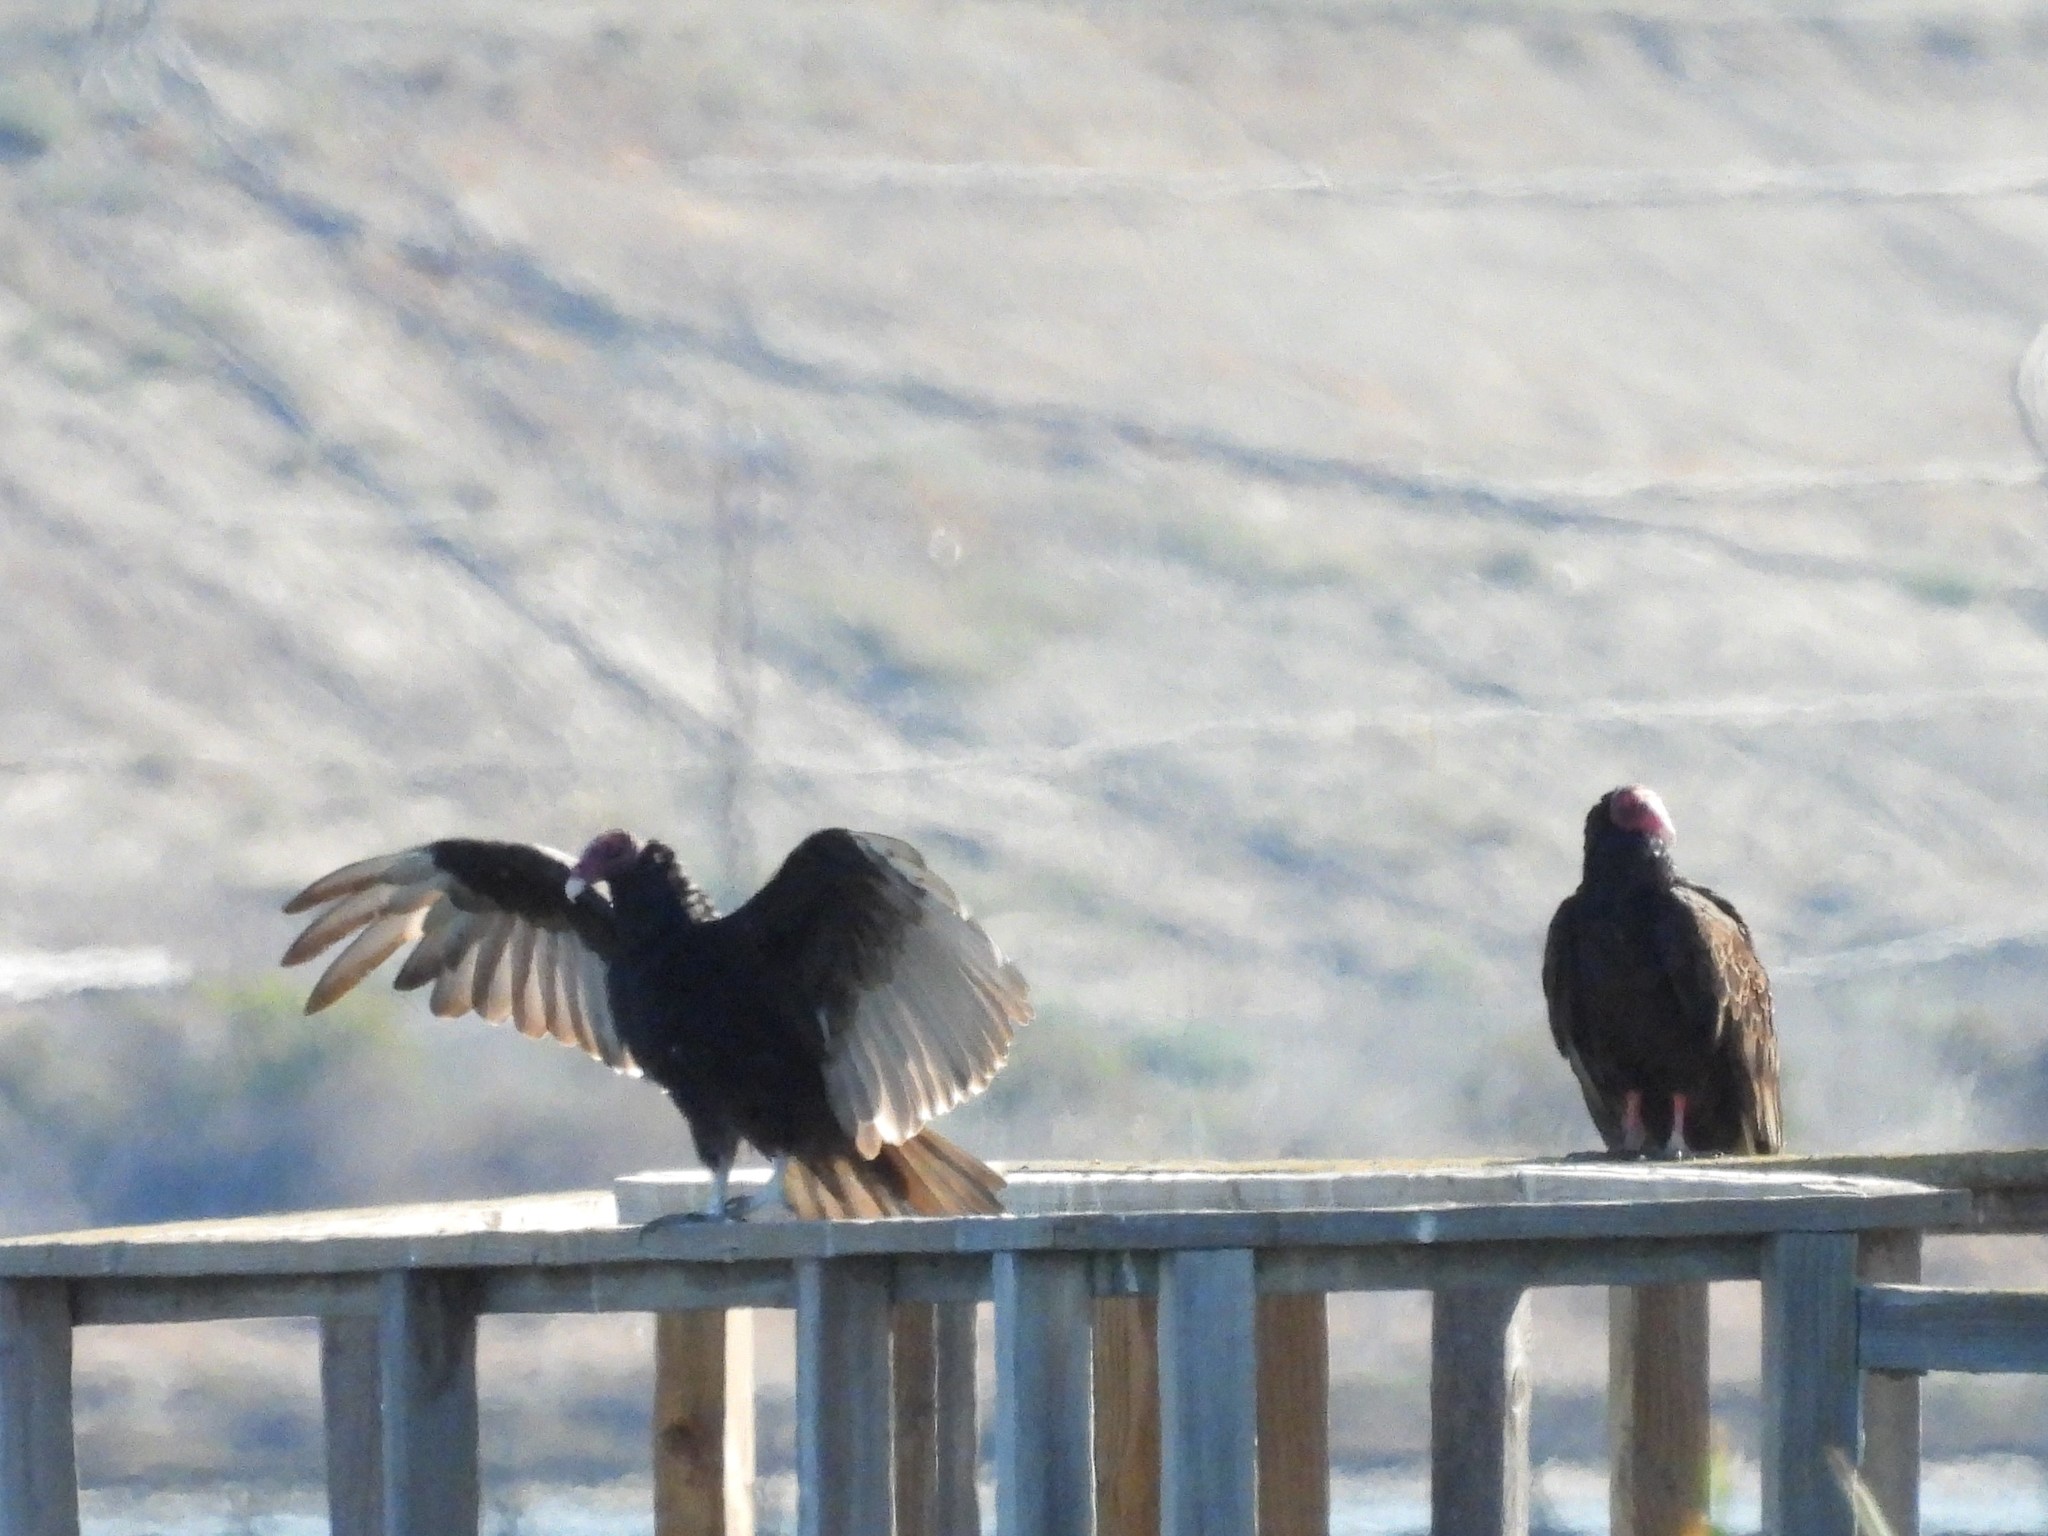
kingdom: Animalia
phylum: Chordata
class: Aves
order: Accipitriformes
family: Cathartidae
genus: Cathartes
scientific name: Cathartes aura
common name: Turkey vulture
